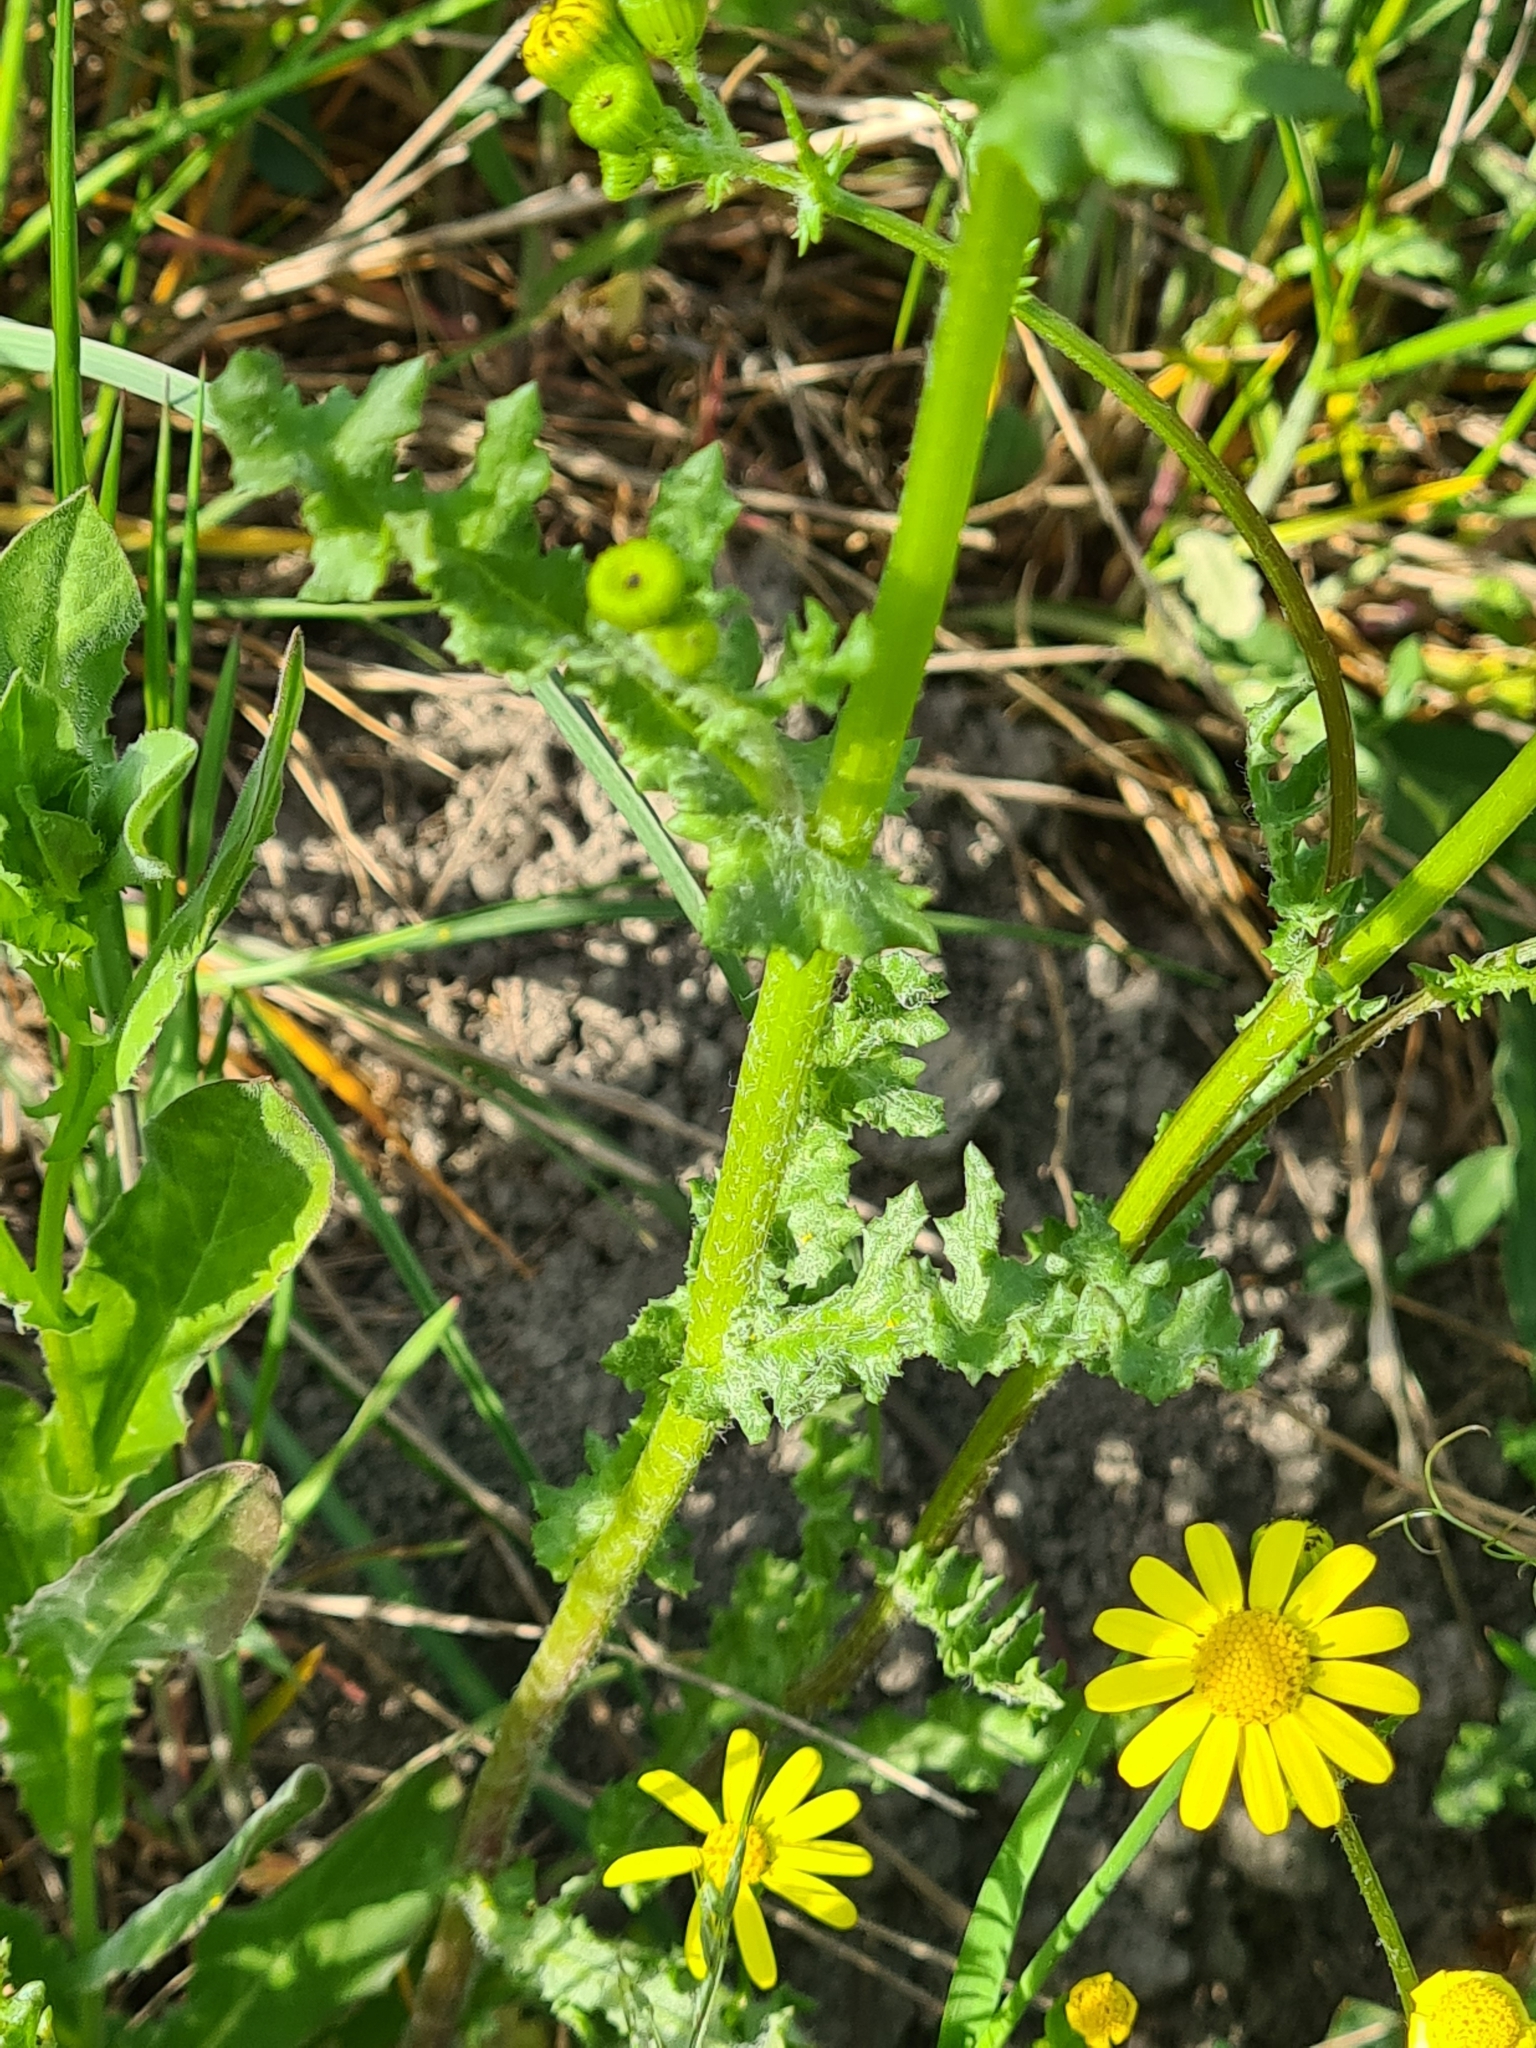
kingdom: Plantae
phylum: Tracheophyta
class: Magnoliopsida
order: Asterales
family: Asteraceae
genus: Senecio
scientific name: Senecio vernalis
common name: Eastern groundsel
